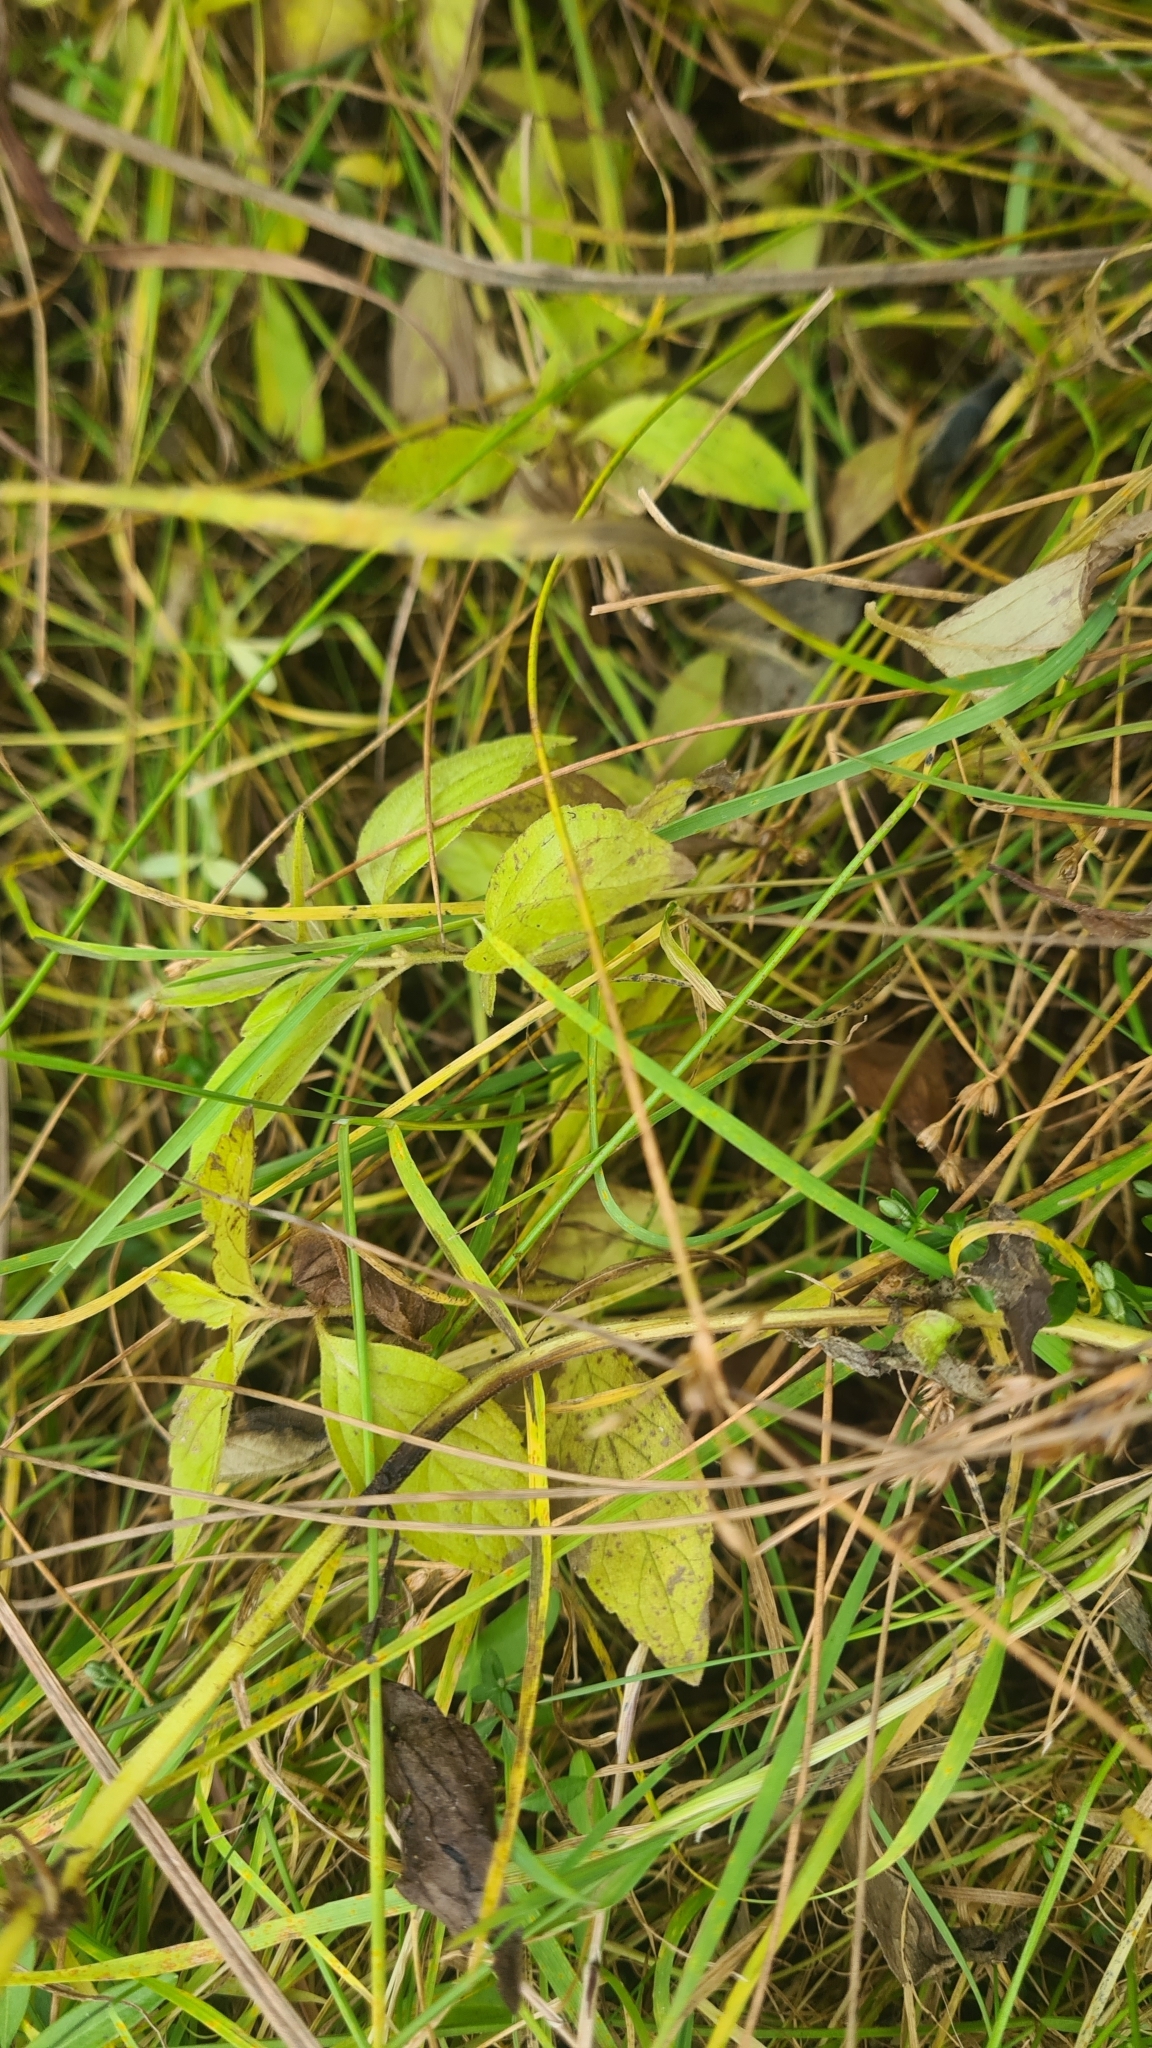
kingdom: Plantae
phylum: Tracheophyta
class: Magnoliopsida
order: Lamiales
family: Lamiaceae
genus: Mentha
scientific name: Mentha arvensis
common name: Corn mint
